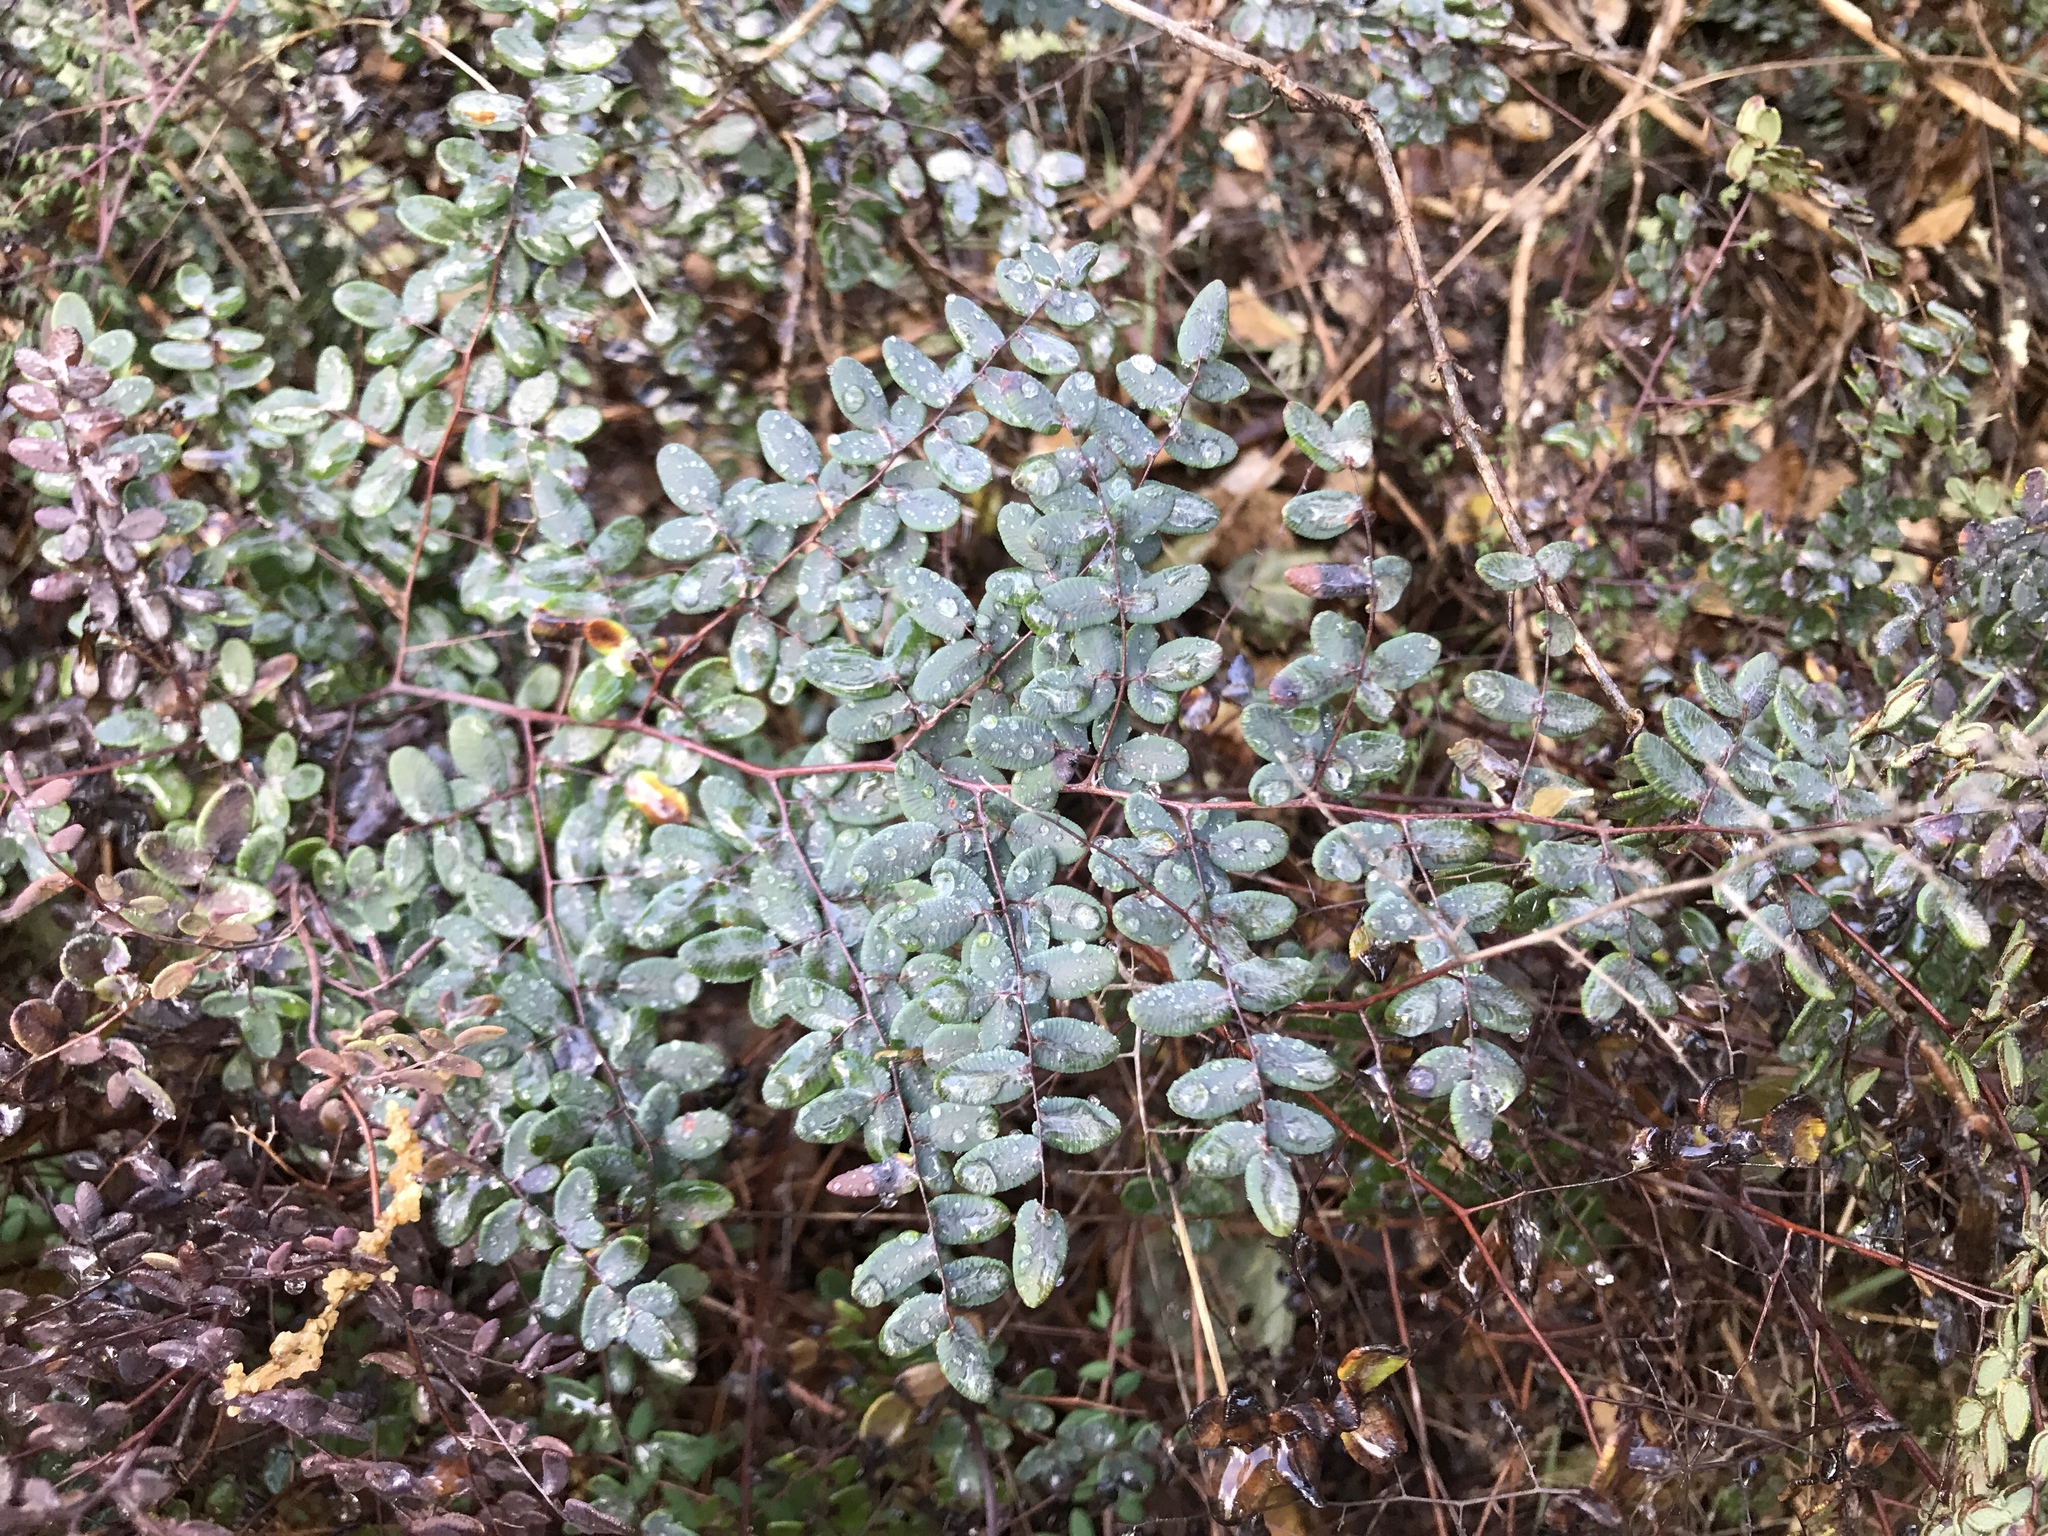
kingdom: Plantae
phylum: Tracheophyta
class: Polypodiopsida
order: Polypodiales
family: Pteridaceae
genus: Pellaea
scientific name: Pellaea andromedifolia
